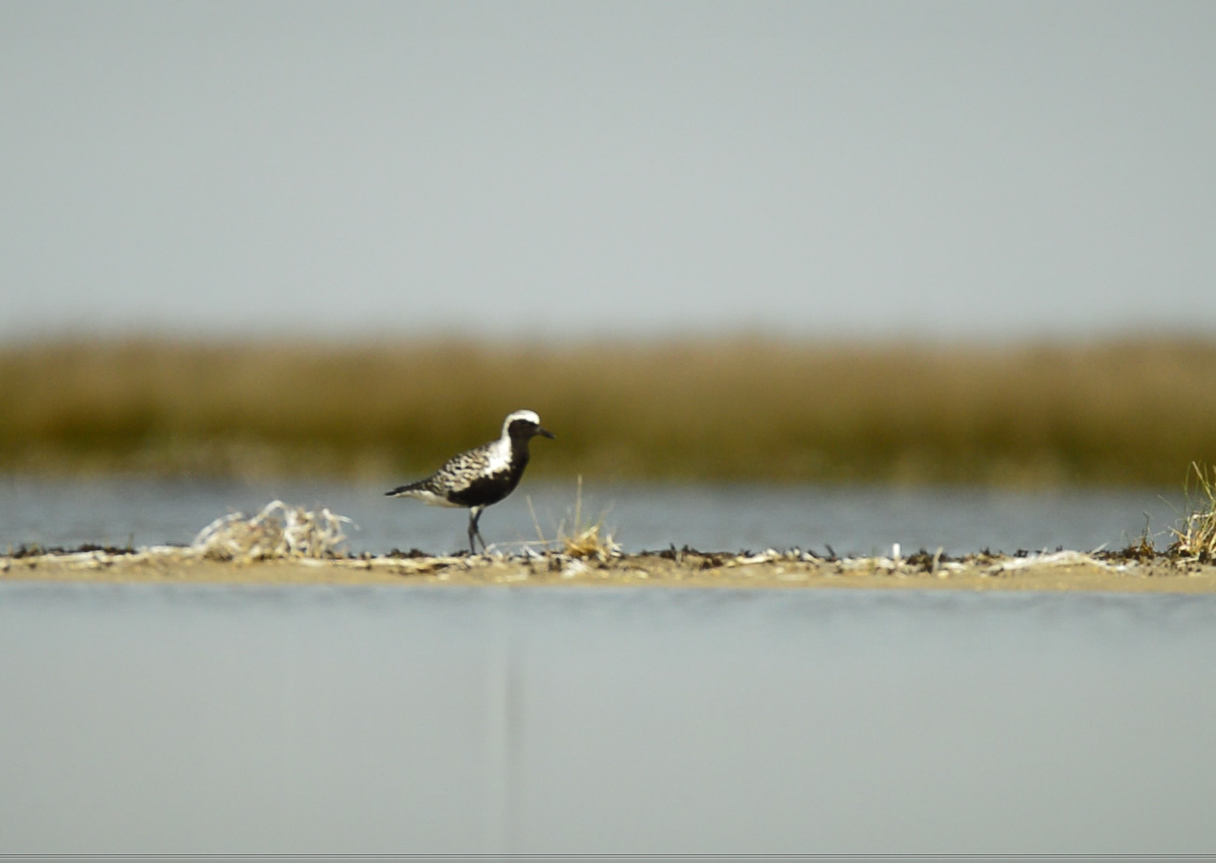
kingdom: Animalia
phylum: Chordata
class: Aves
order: Charadriiformes
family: Charadriidae
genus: Pluvialis
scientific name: Pluvialis squatarola
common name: Grey plover
